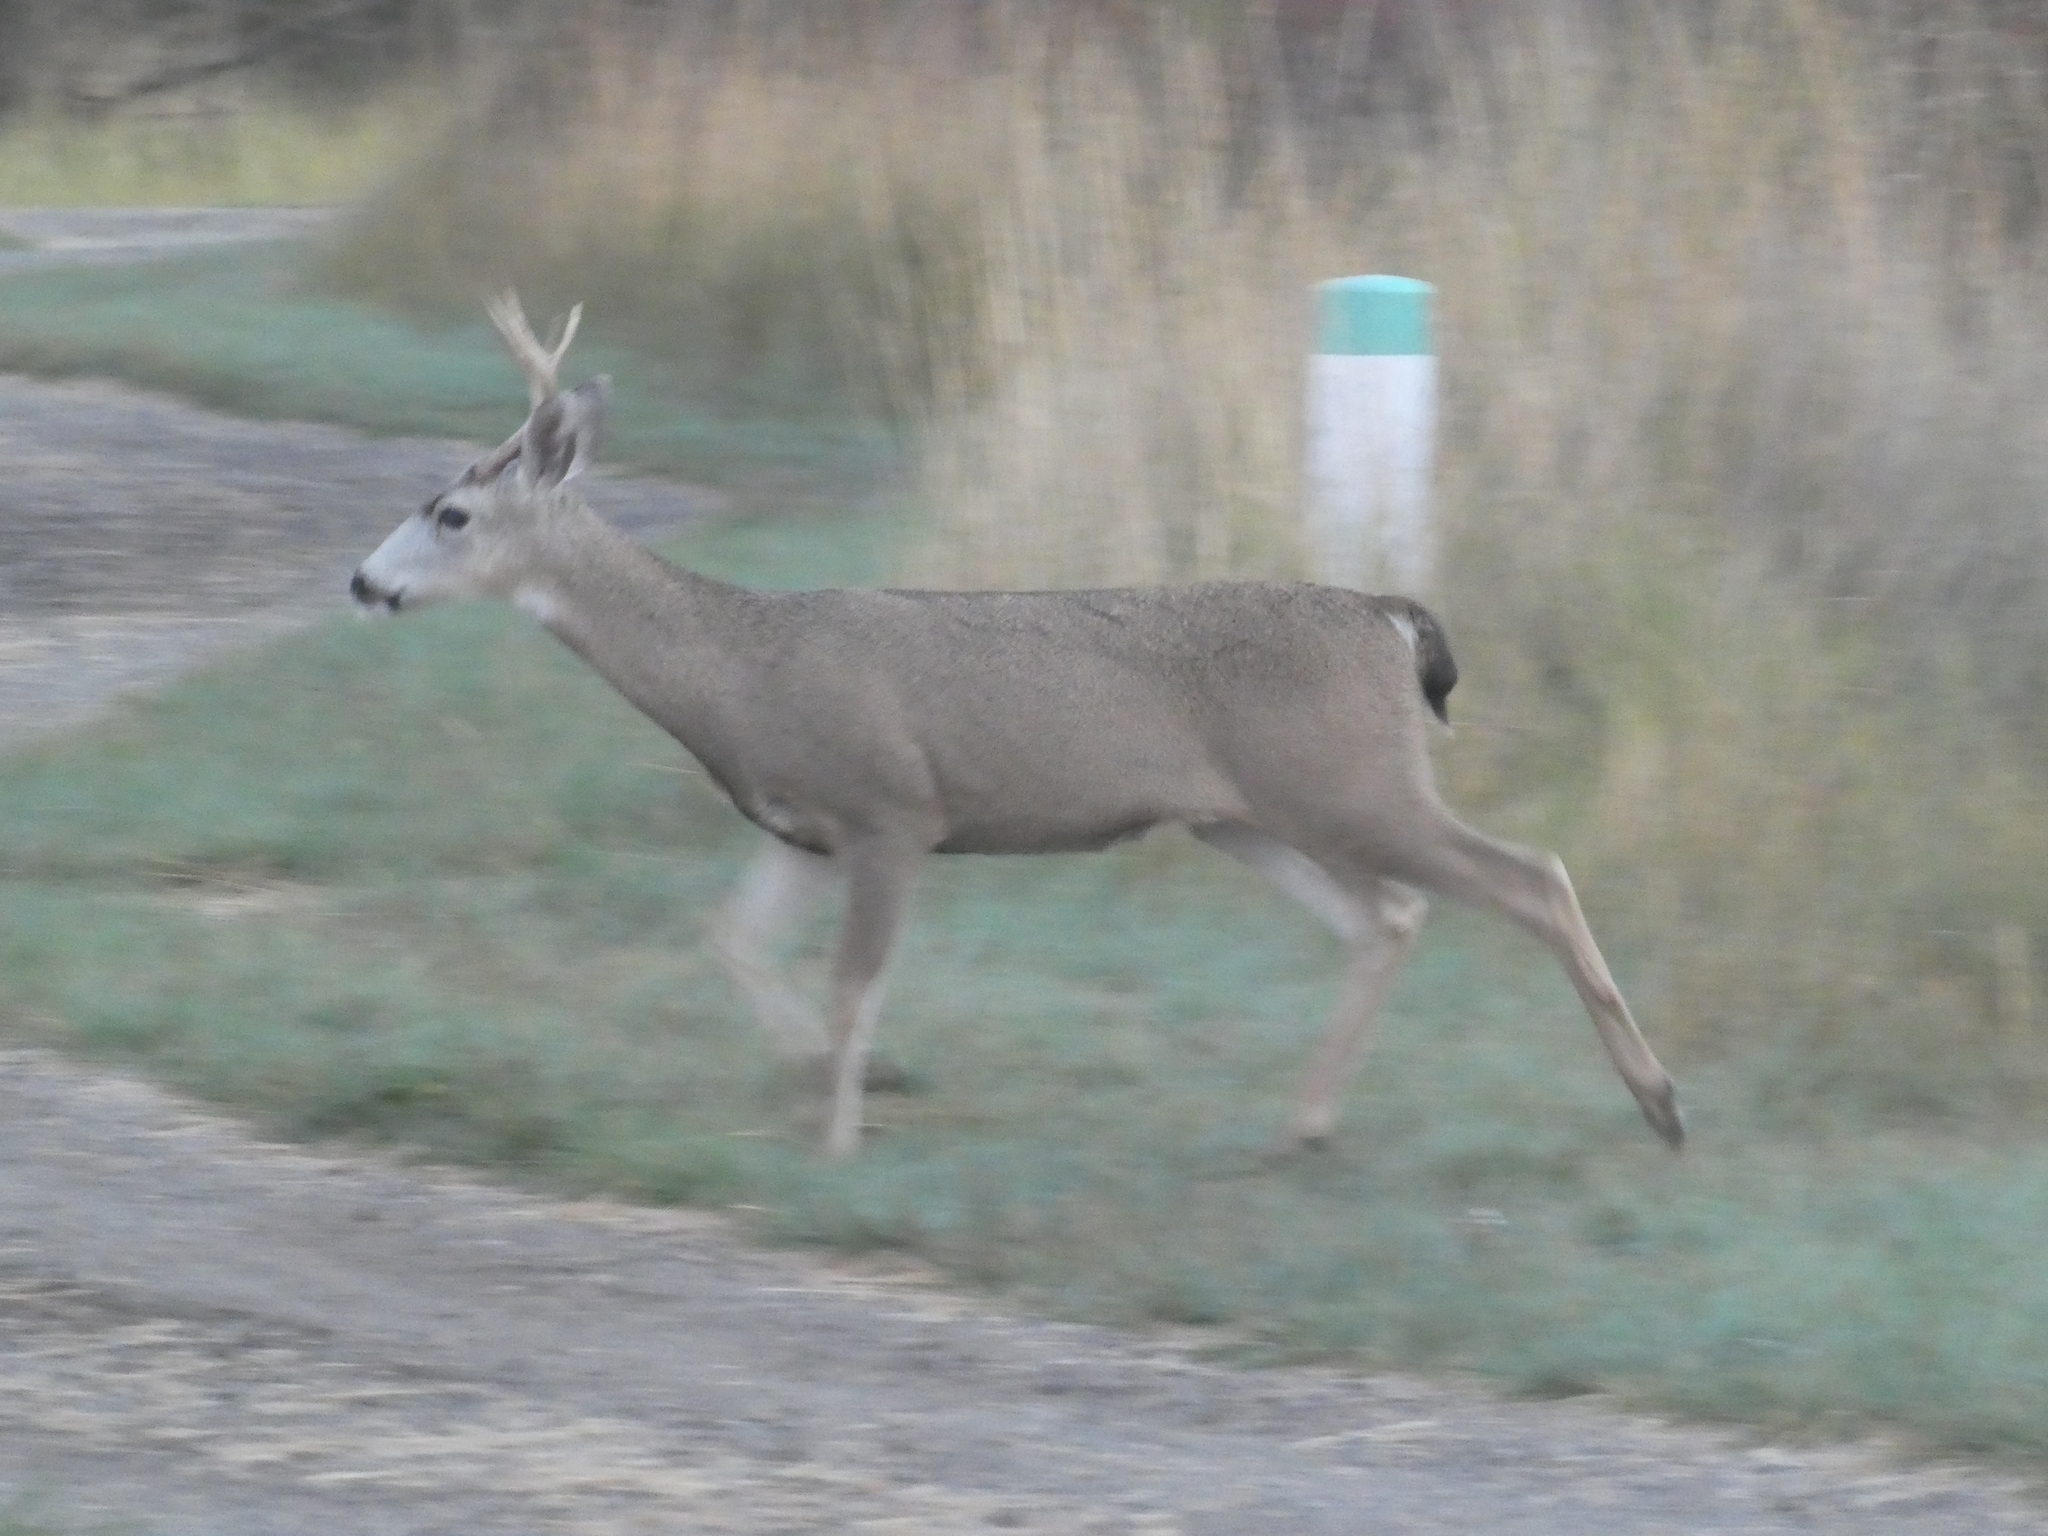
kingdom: Animalia
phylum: Chordata
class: Mammalia
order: Artiodactyla
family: Cervidae
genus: Odocoileus
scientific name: Odocoileus hemionus
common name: Mule deer
